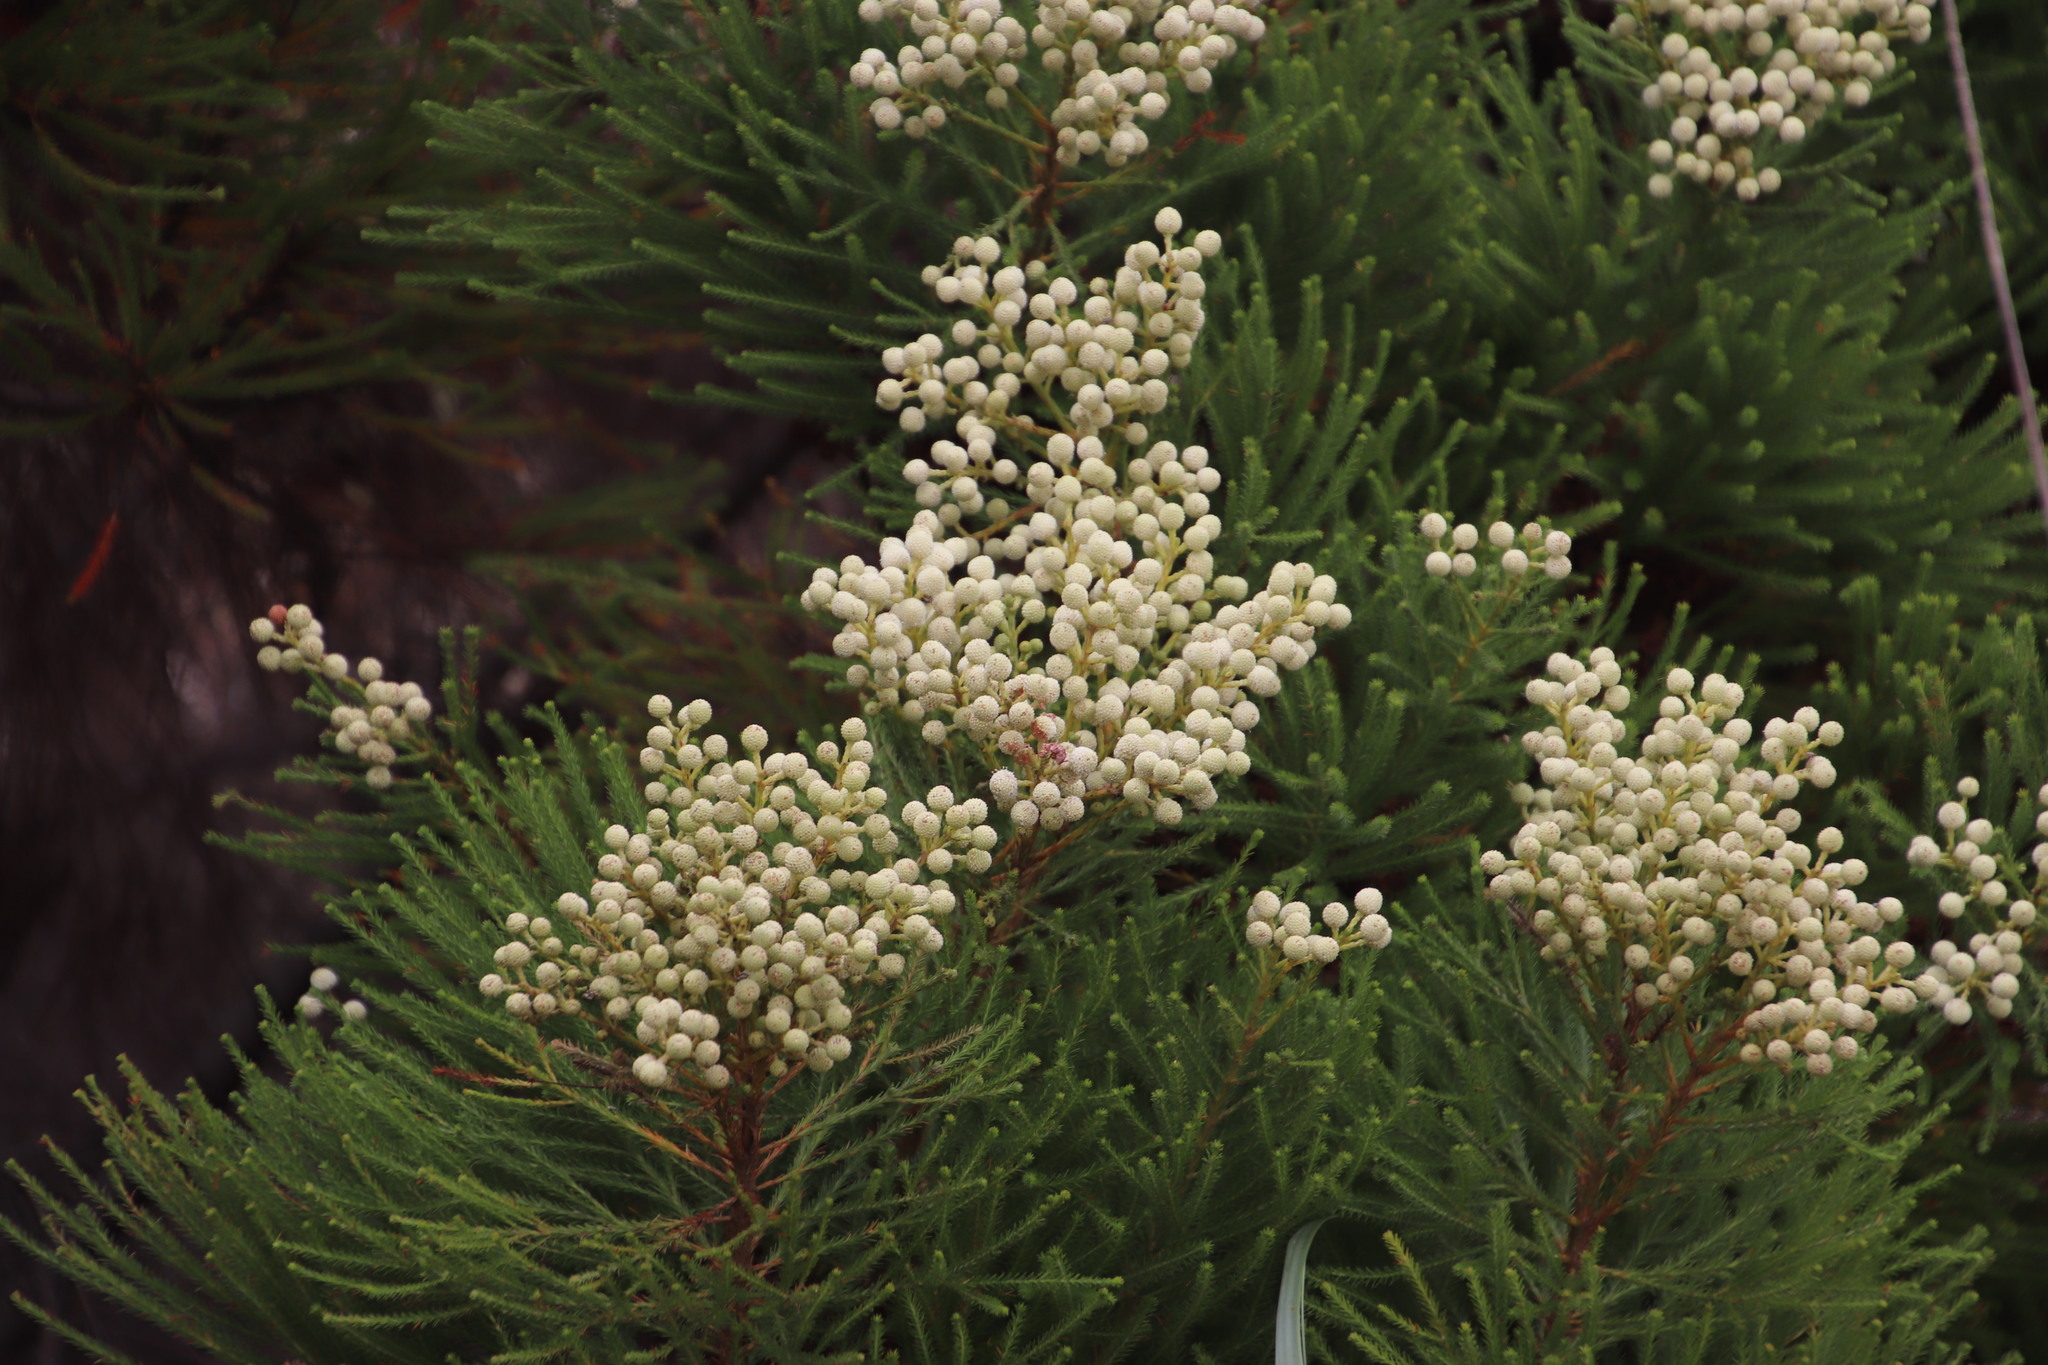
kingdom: Plantae
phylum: Tracheophyta
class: Magnoliopsida
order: Bruniales
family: Bruniaceae
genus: Berzelia
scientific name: Berzelia lanuginosa
